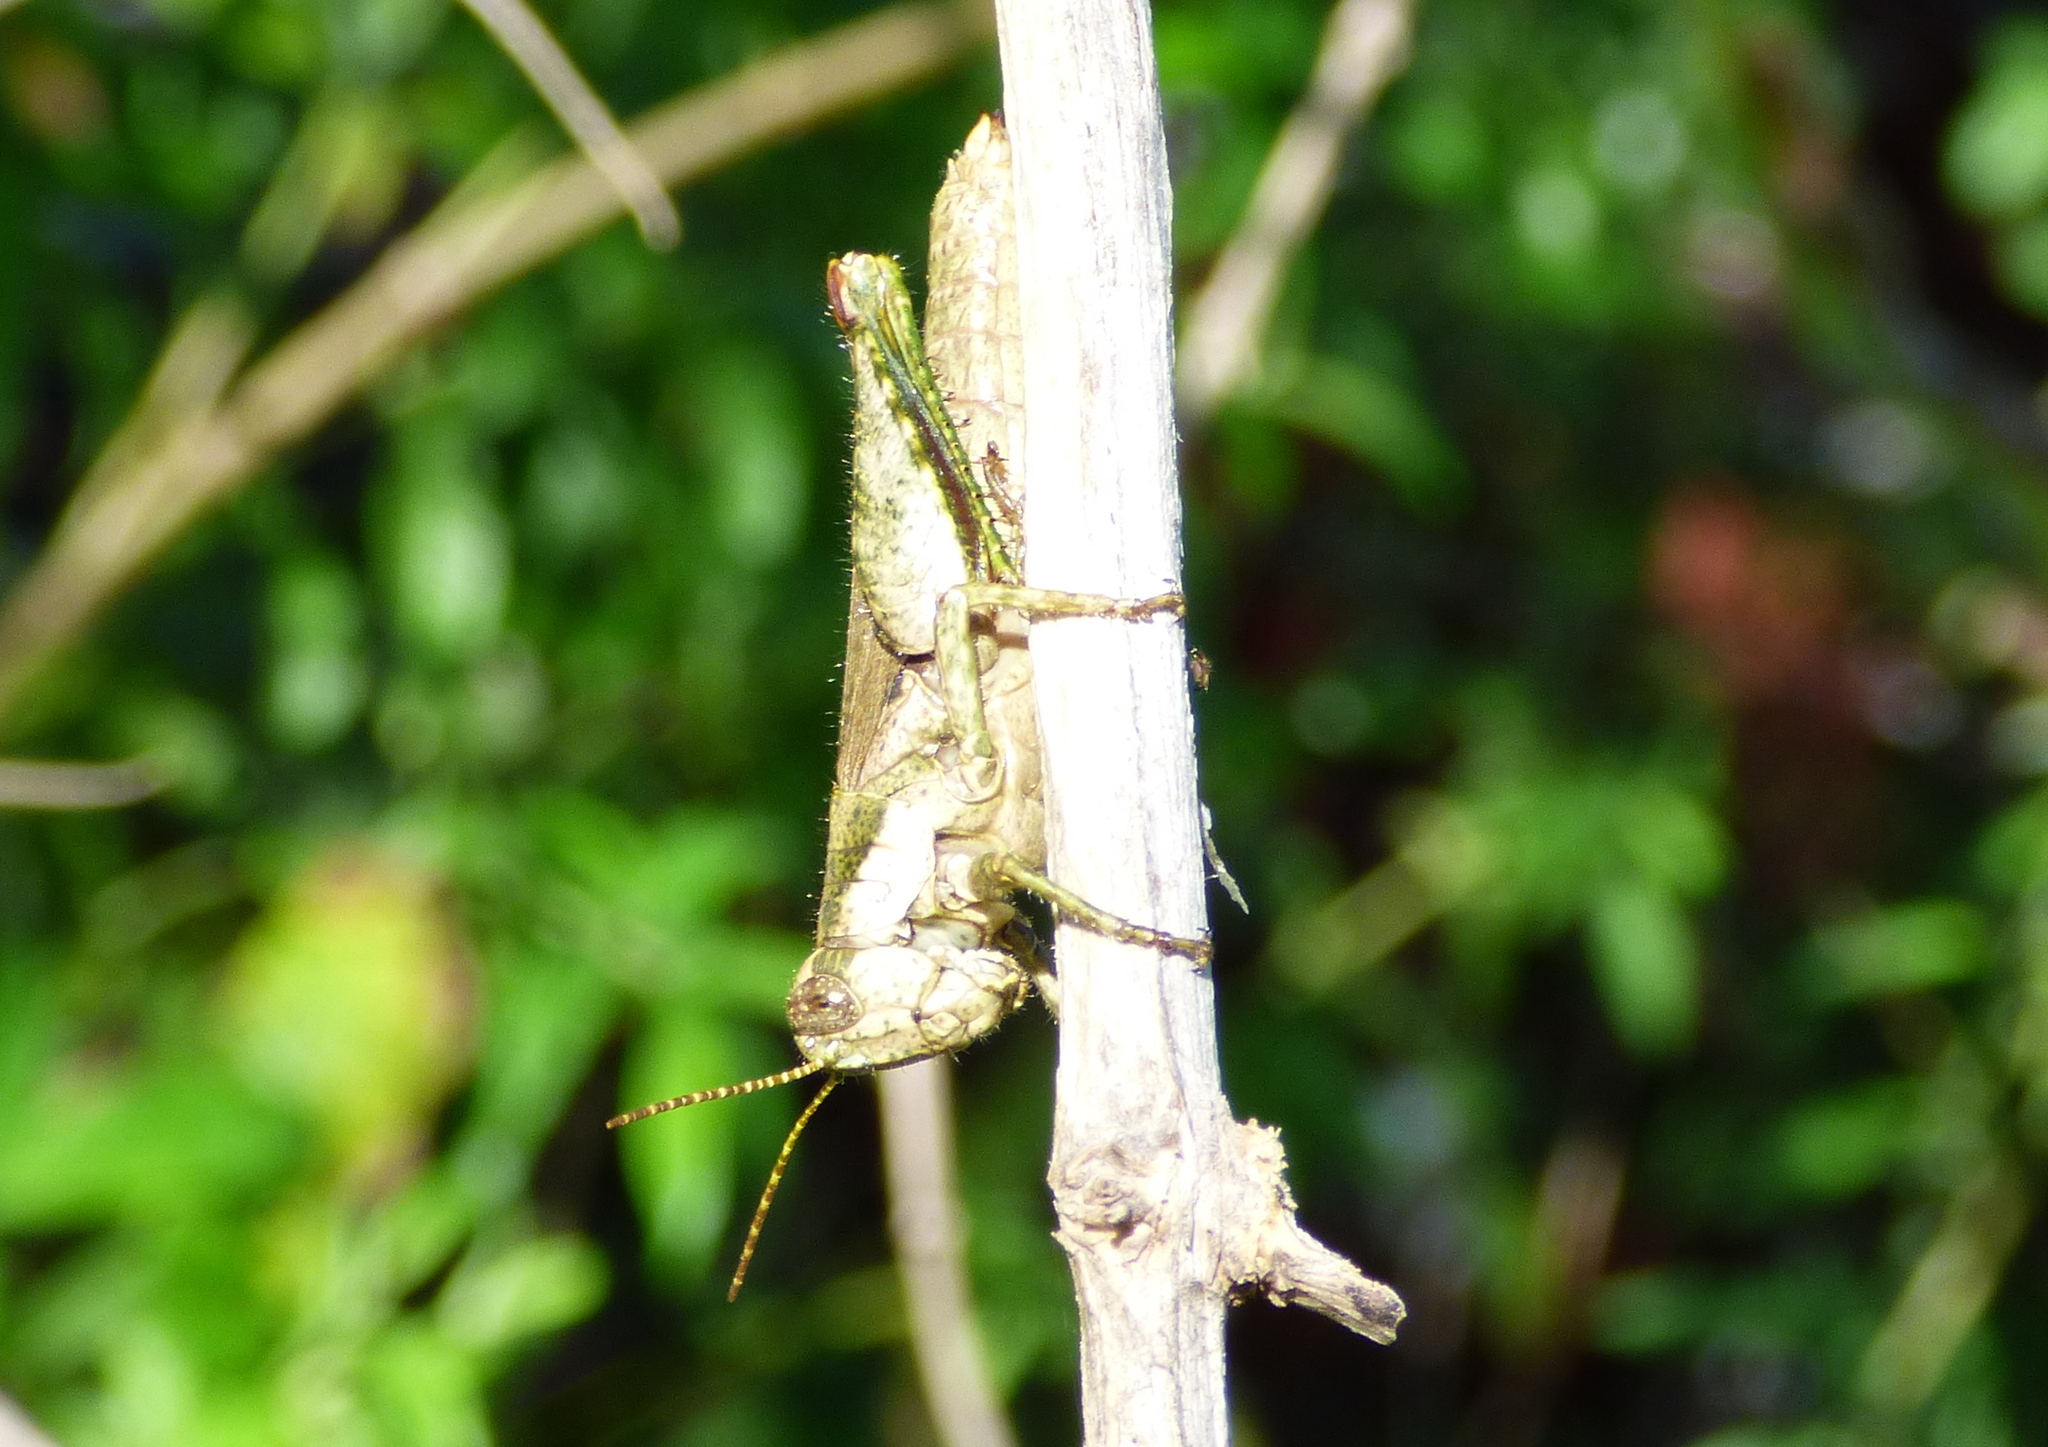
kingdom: Animalia
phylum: Arthropoda
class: Insecta
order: Orthoptera
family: Acrididae
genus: Ronderosia
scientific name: Ronderosia bergii
